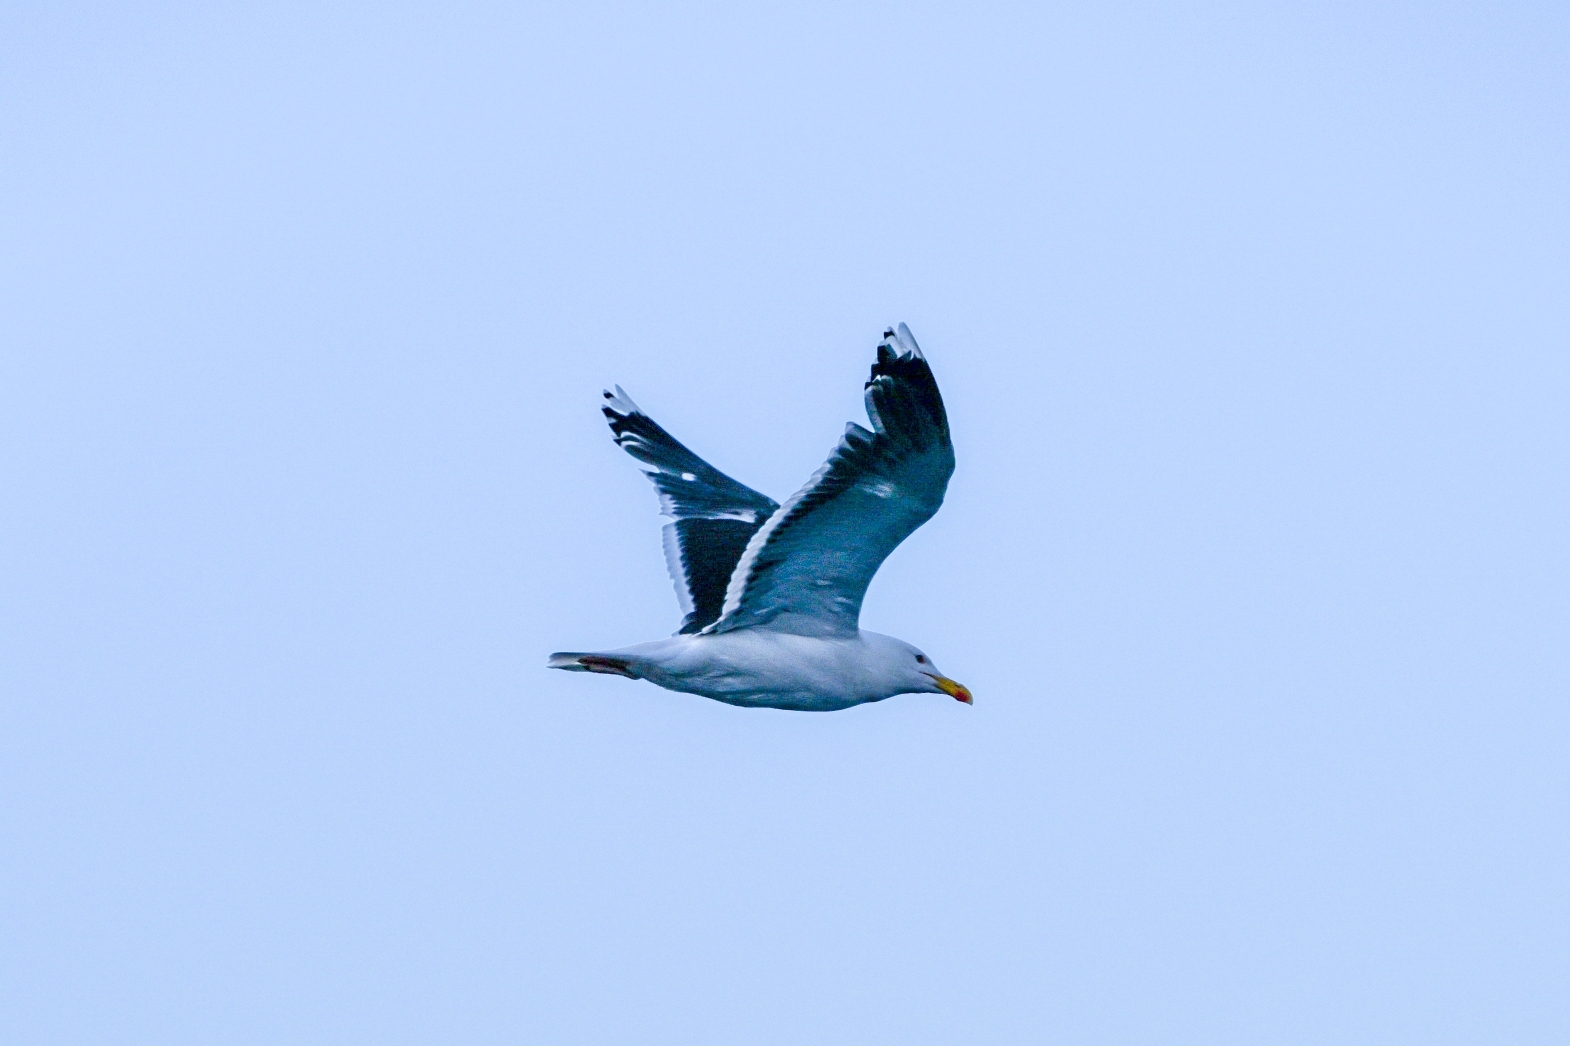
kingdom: Animalia
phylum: Chordata
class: Aves
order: Charadriiformes
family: Laridae
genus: Larus
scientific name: Larus argentatus
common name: Herring gull
